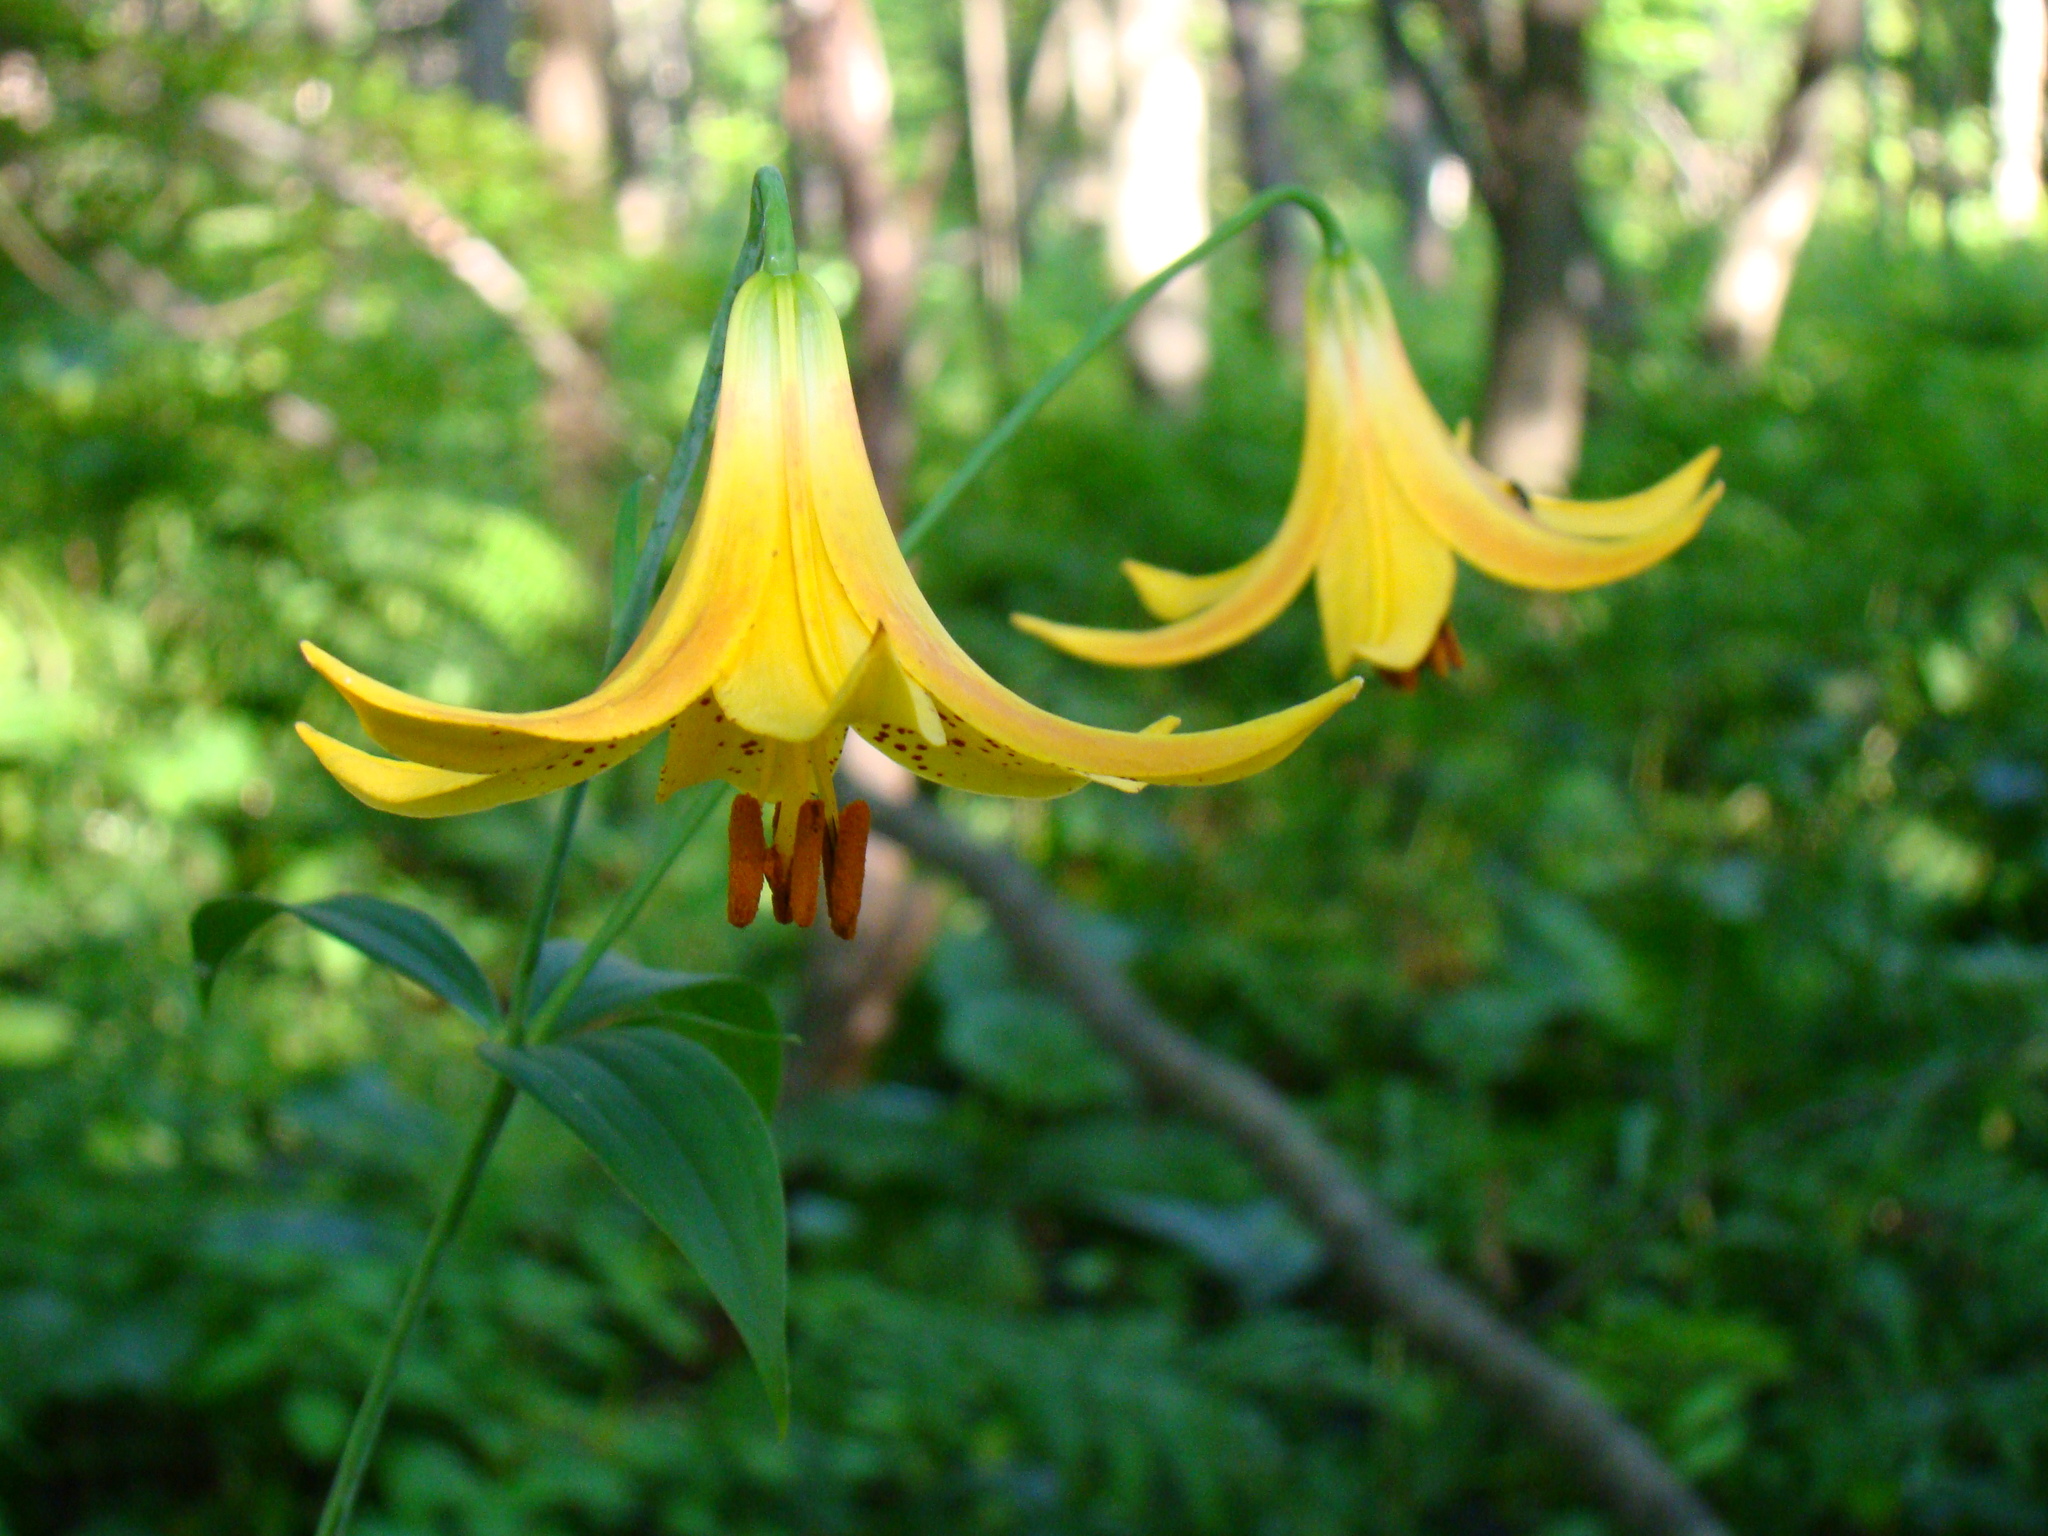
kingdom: Plantae
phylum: Tracheophyta
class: Liliopsida
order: Liliales
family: Liliaceae
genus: Lilium
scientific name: Lilium canadense
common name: Canada lily
